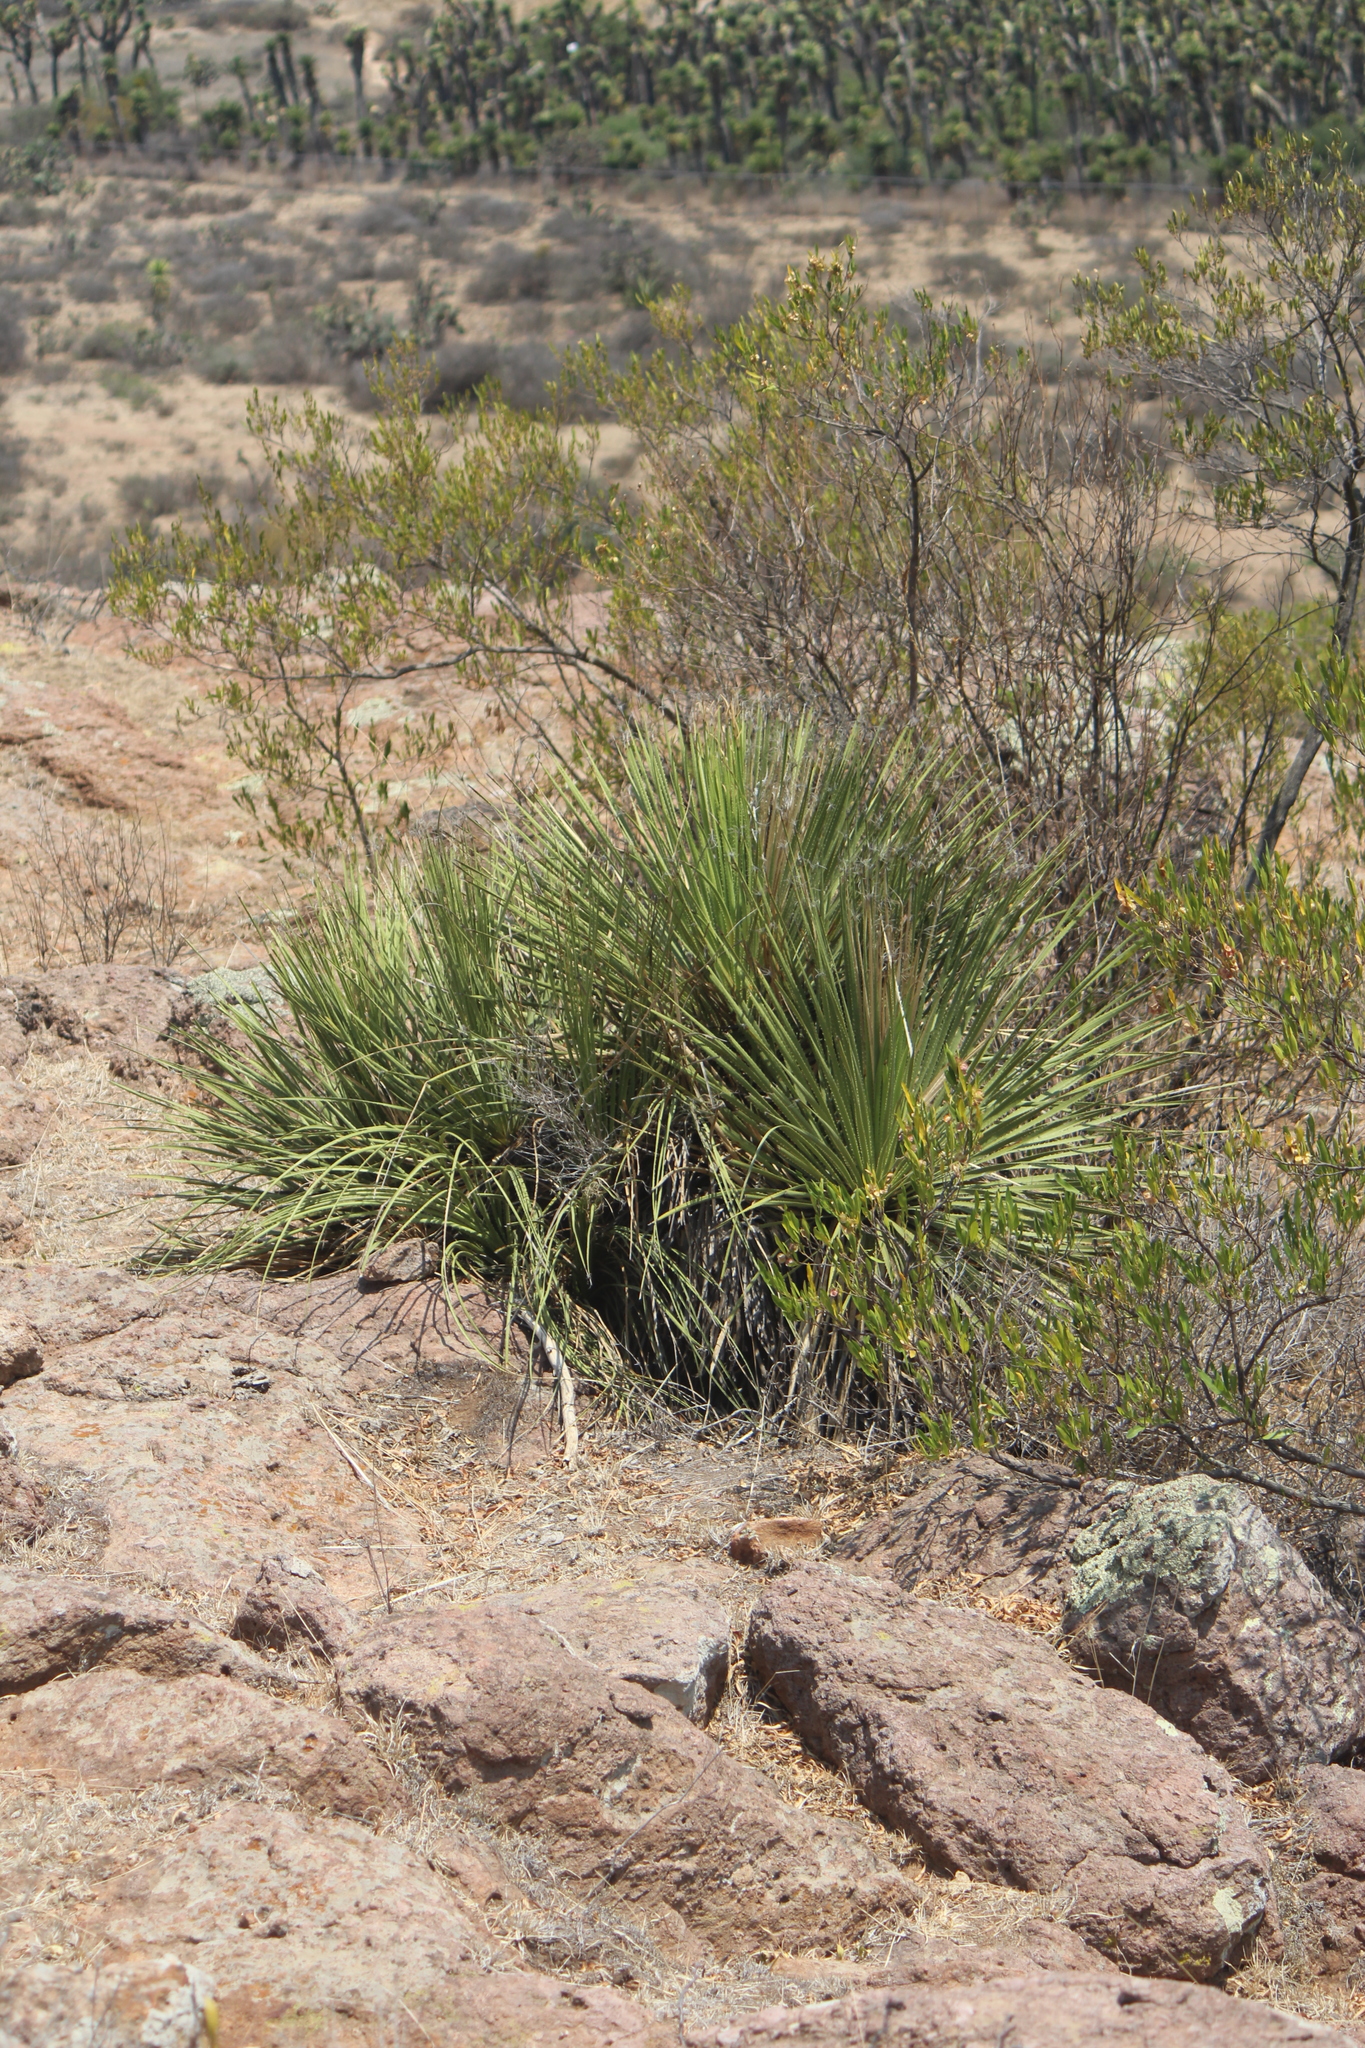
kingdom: Plantae
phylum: Tracheophyta
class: Liliopsida
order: Asparagales
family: Asparagaceae
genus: Dasylirion
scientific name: Dasylirion acrotrichum
